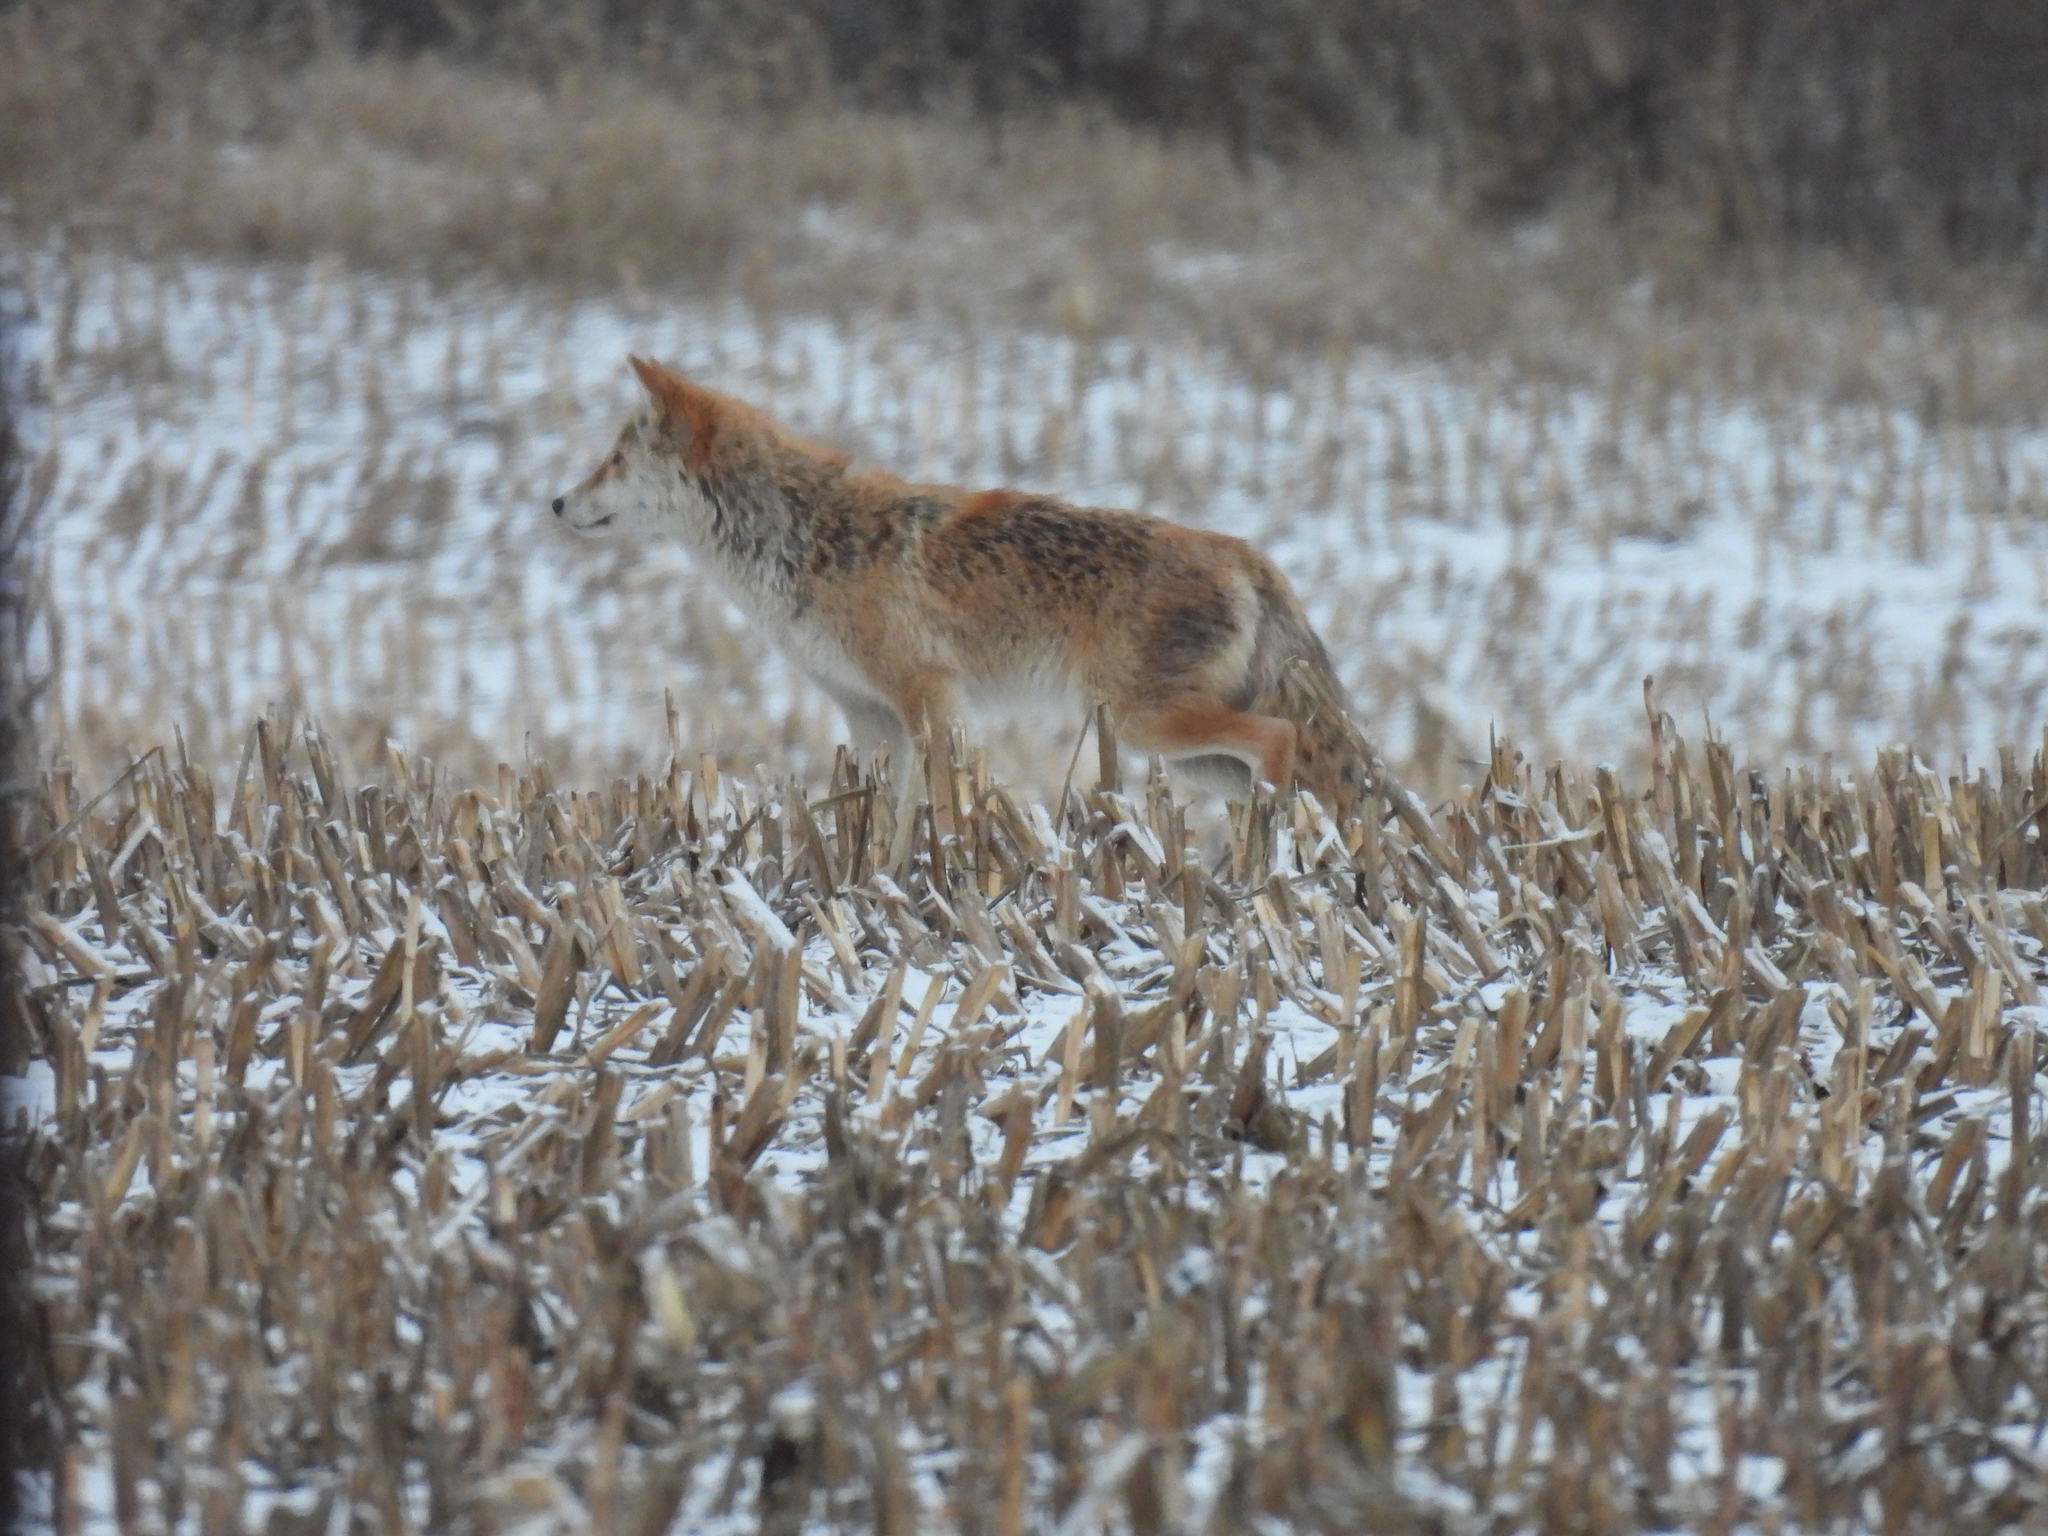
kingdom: Animalia
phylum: Chordata
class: Mammalia
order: Carnivora
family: Canidae
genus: Canis
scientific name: Canis latrans
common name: Coyote
